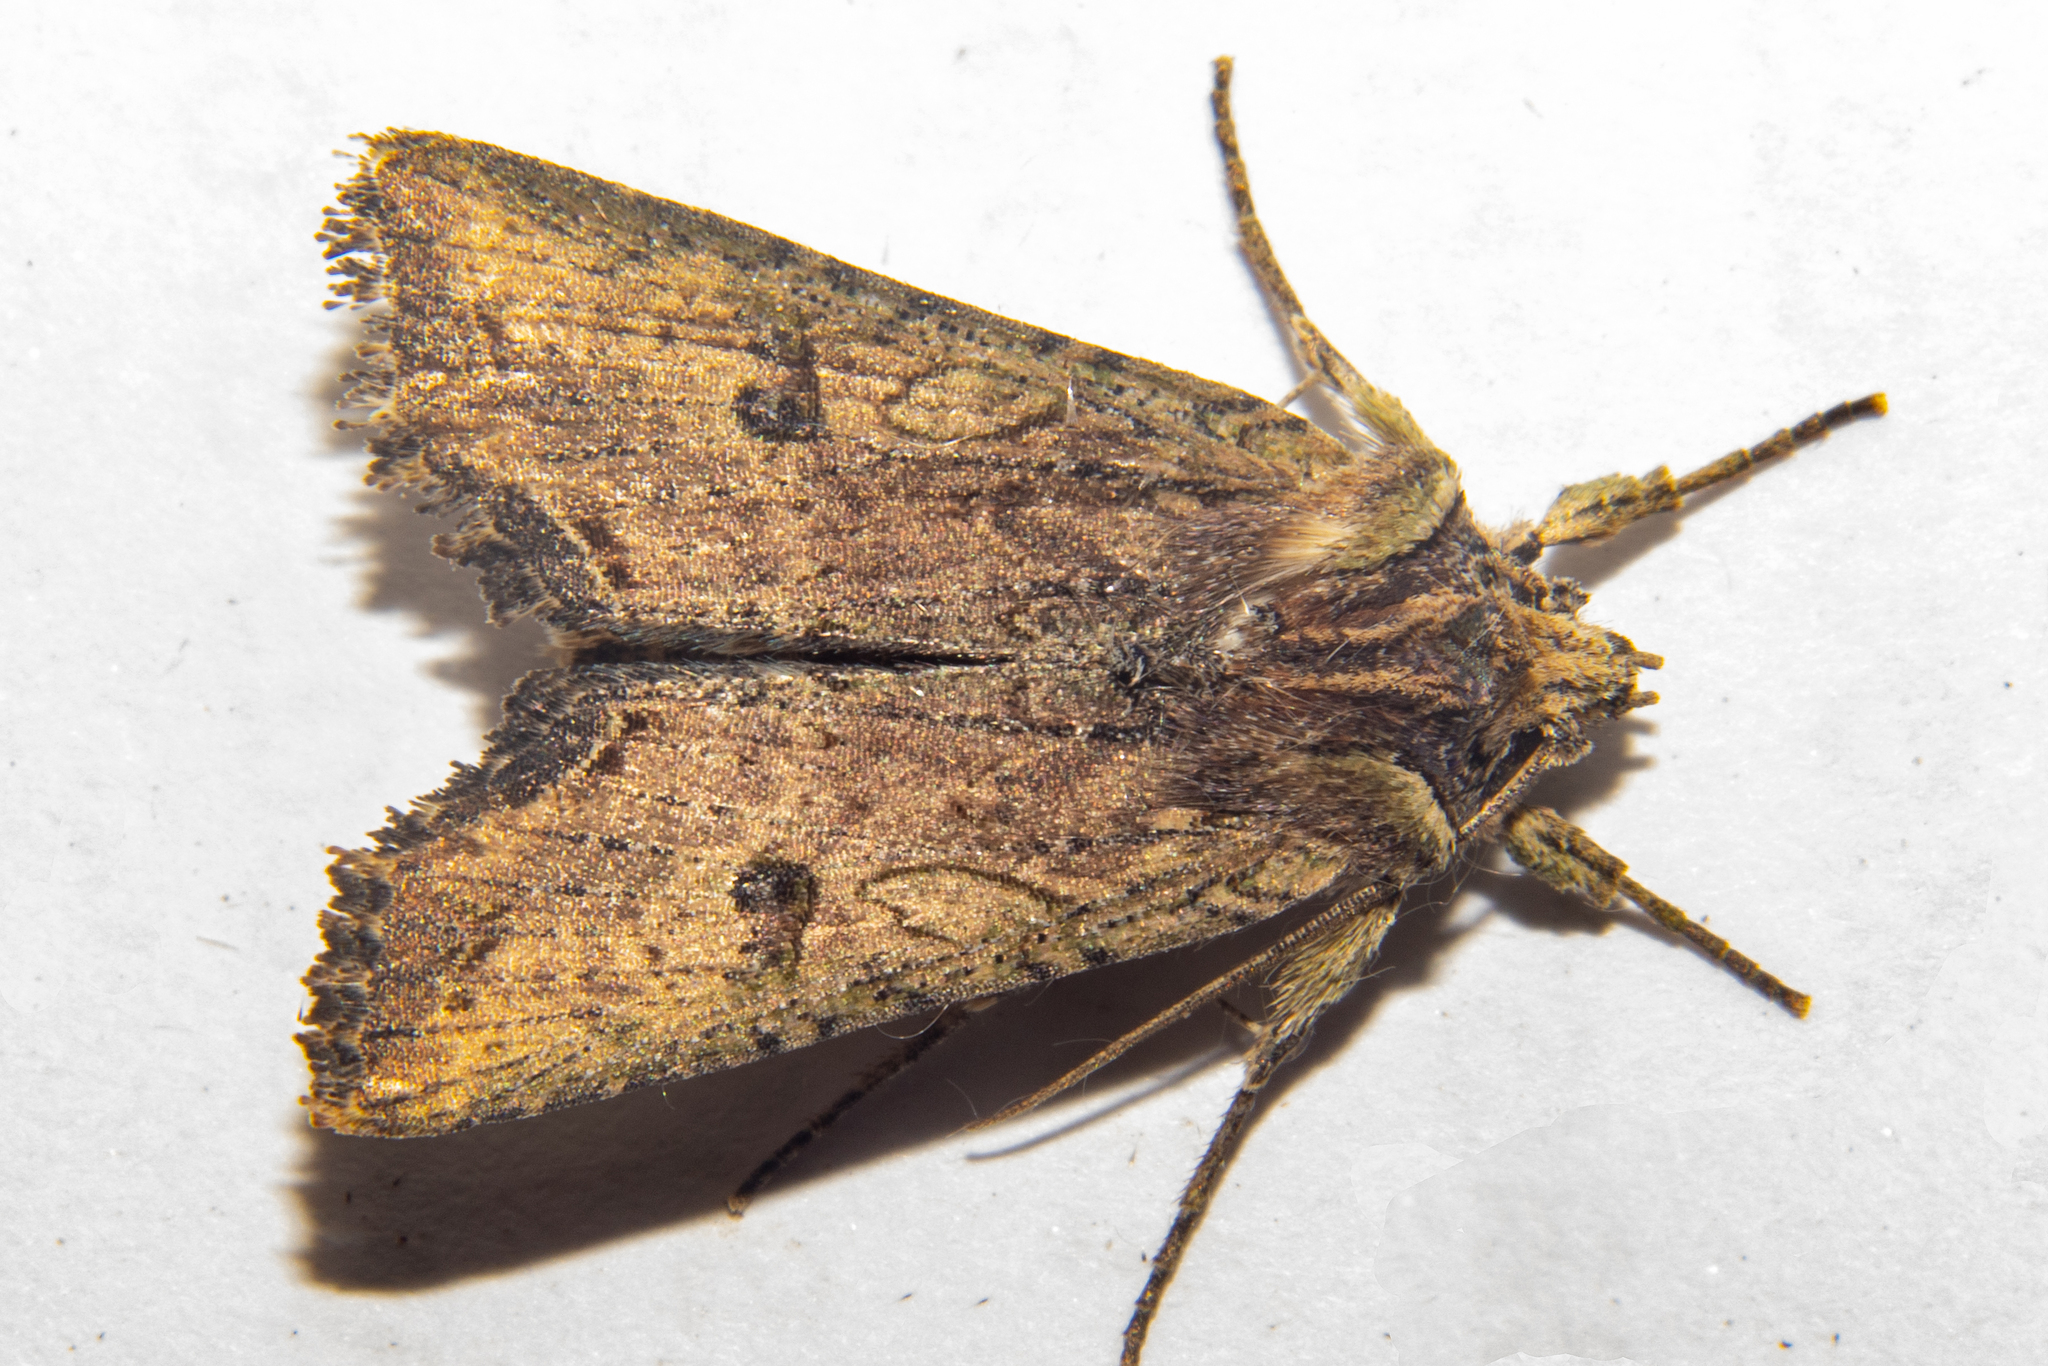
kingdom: Animalia
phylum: Arthropoda
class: Insecta
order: Lepidoptera
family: Noctuidae
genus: Meterana
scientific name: Meterana coeleno
